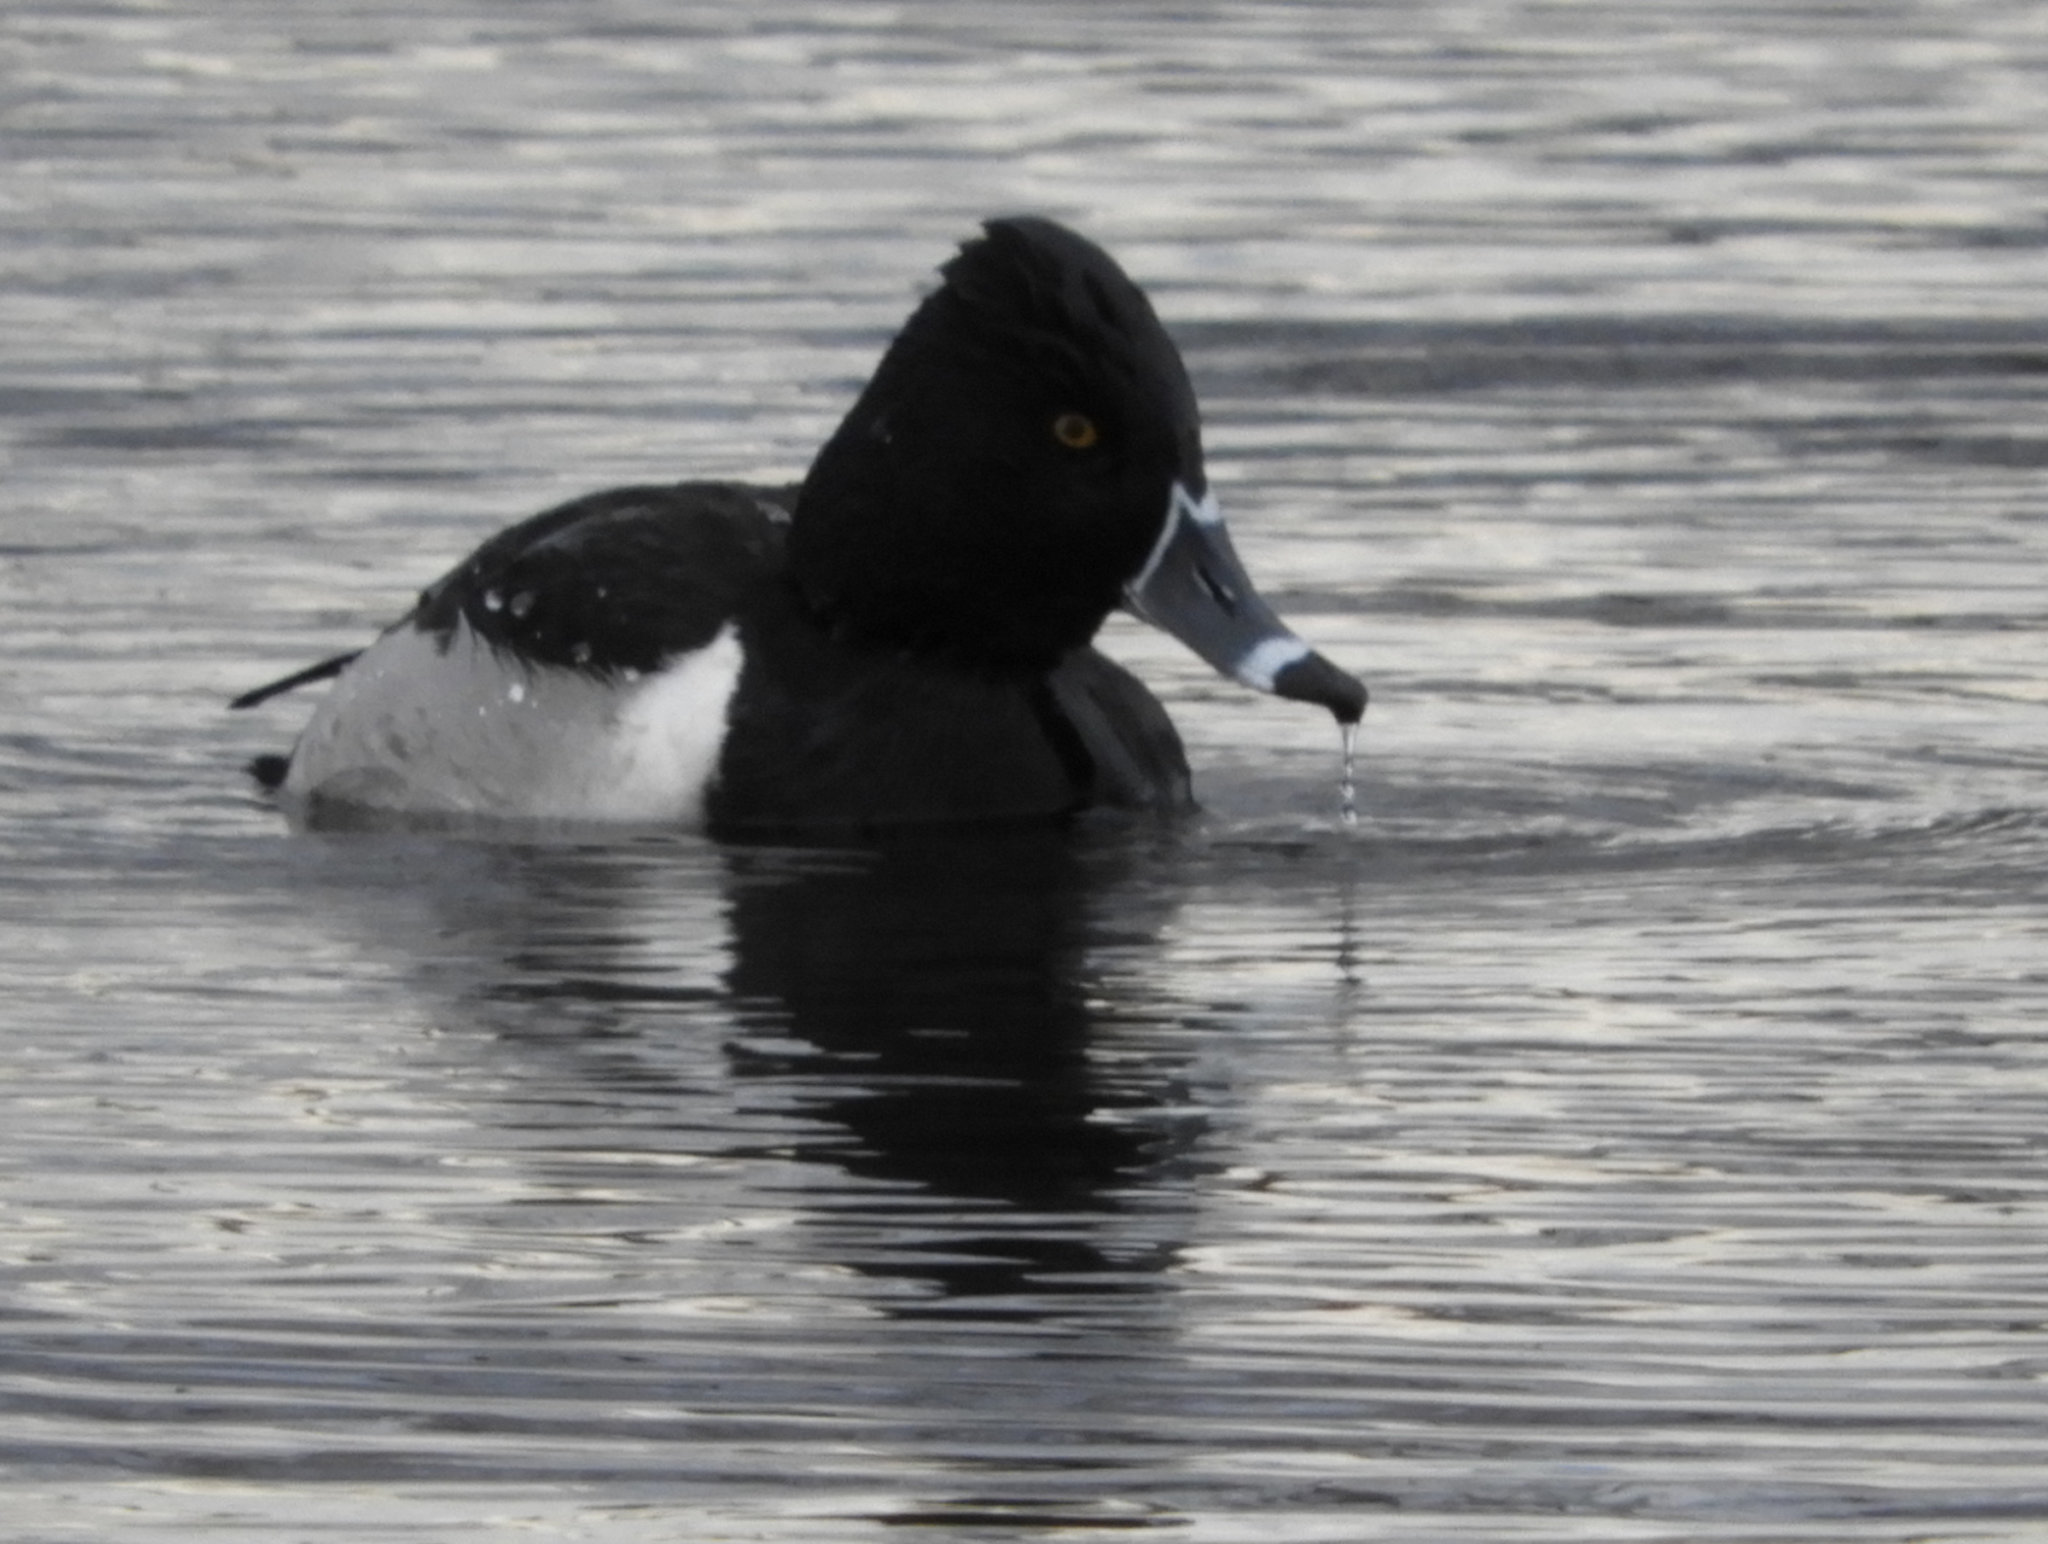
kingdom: Animalia
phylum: Chordata
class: Aves
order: Anseriformes
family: Anatidae
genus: Aythya
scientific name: Aythya collaris
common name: Ring-necked duck
